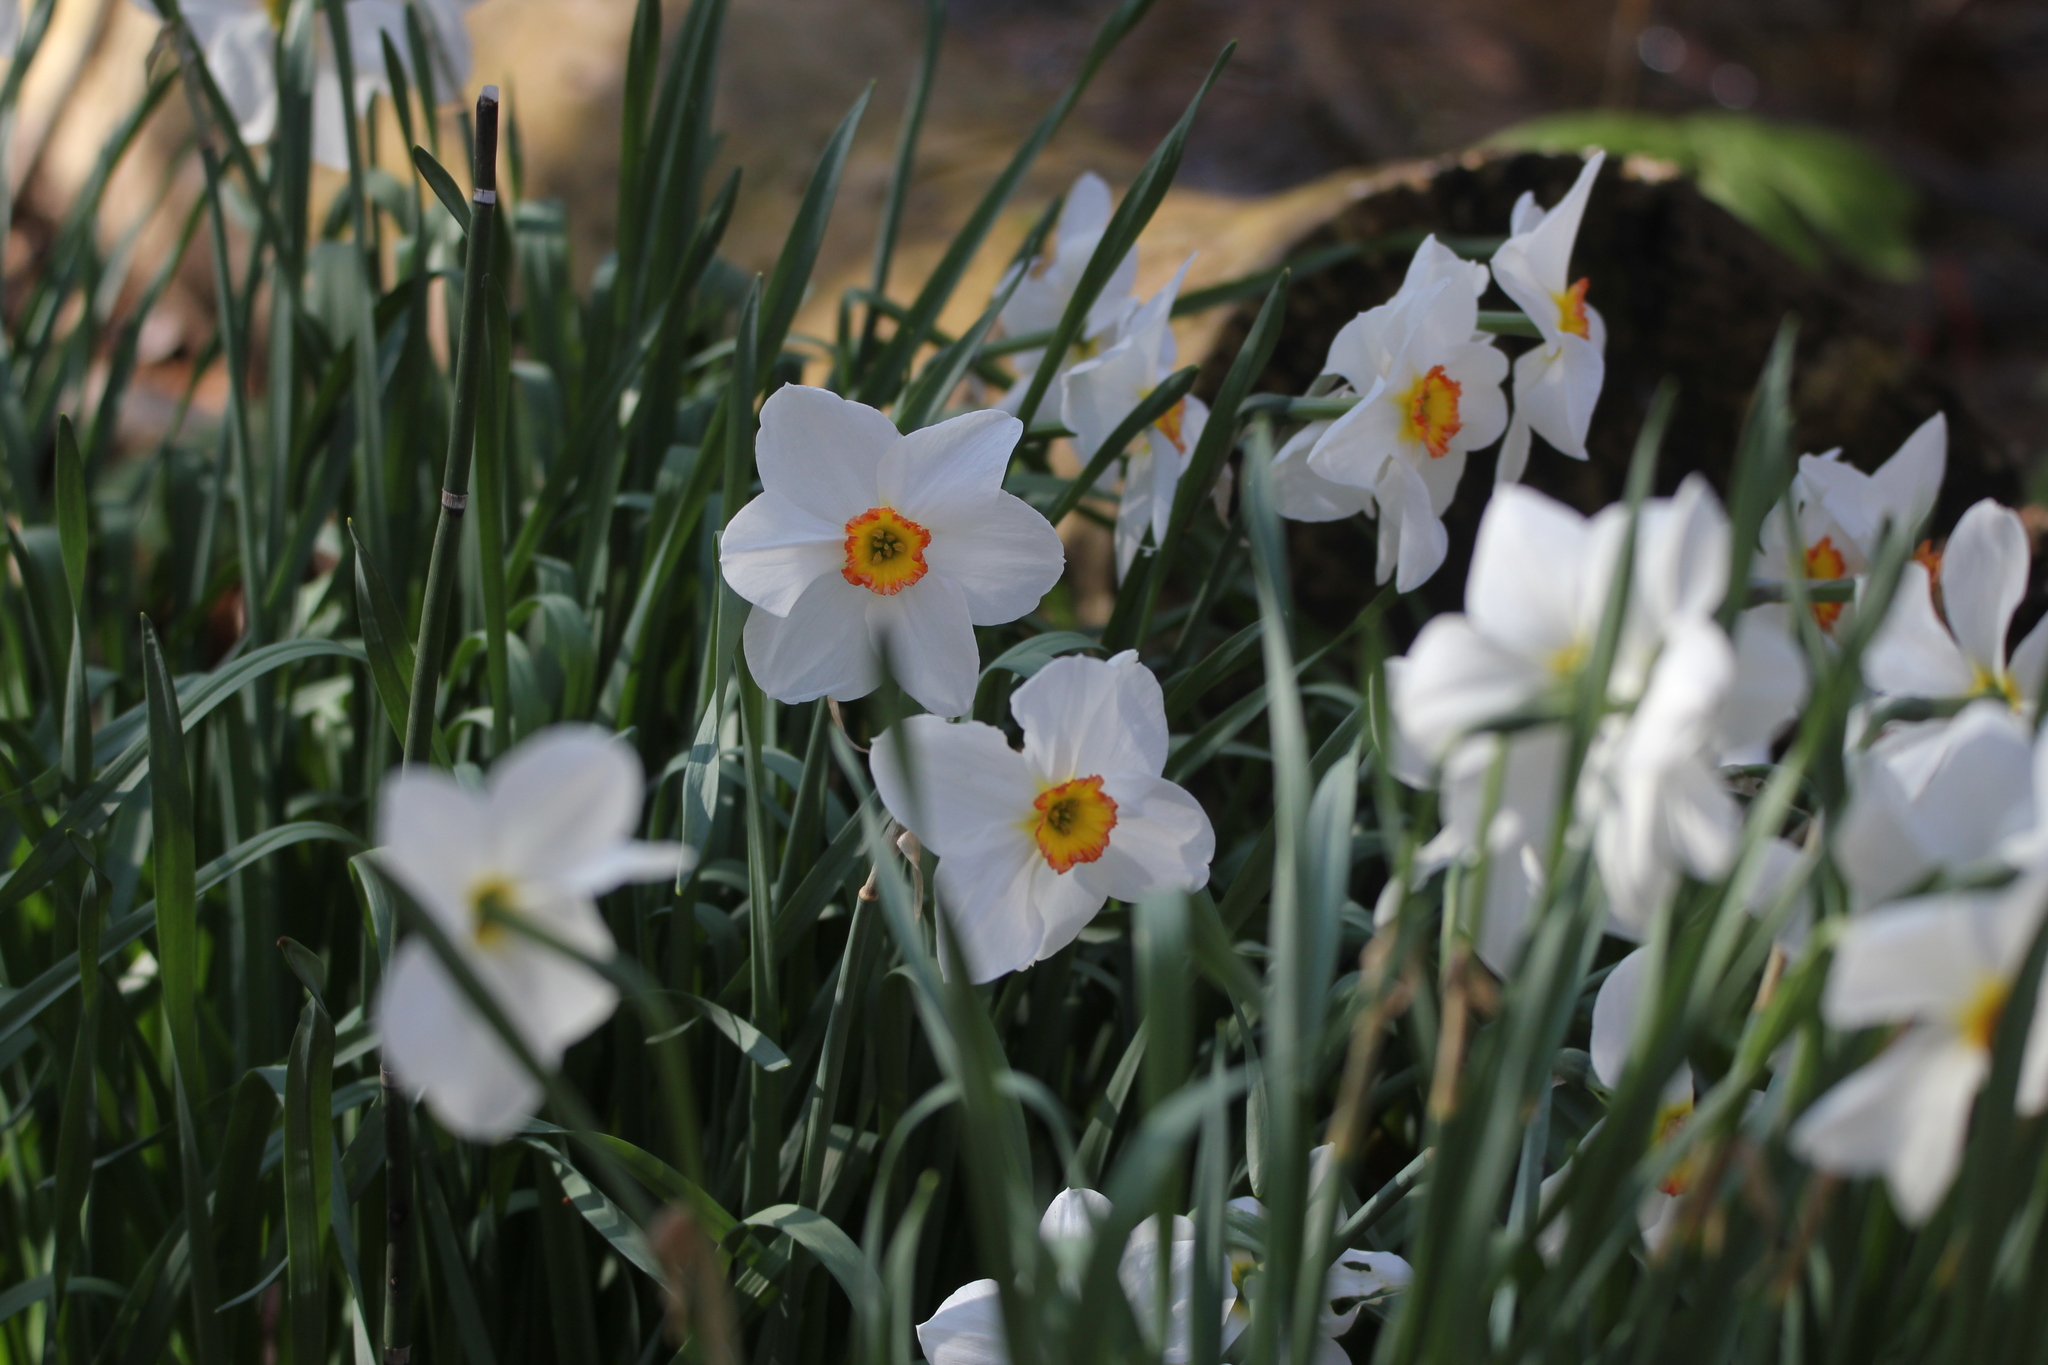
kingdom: Plantae
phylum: Tracheophyta
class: Liliopsida
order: Asparagales
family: Amaryllidaceae
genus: Narcissus
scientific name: Narcissus poeticus
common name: Pheasant's-eye daffodil
